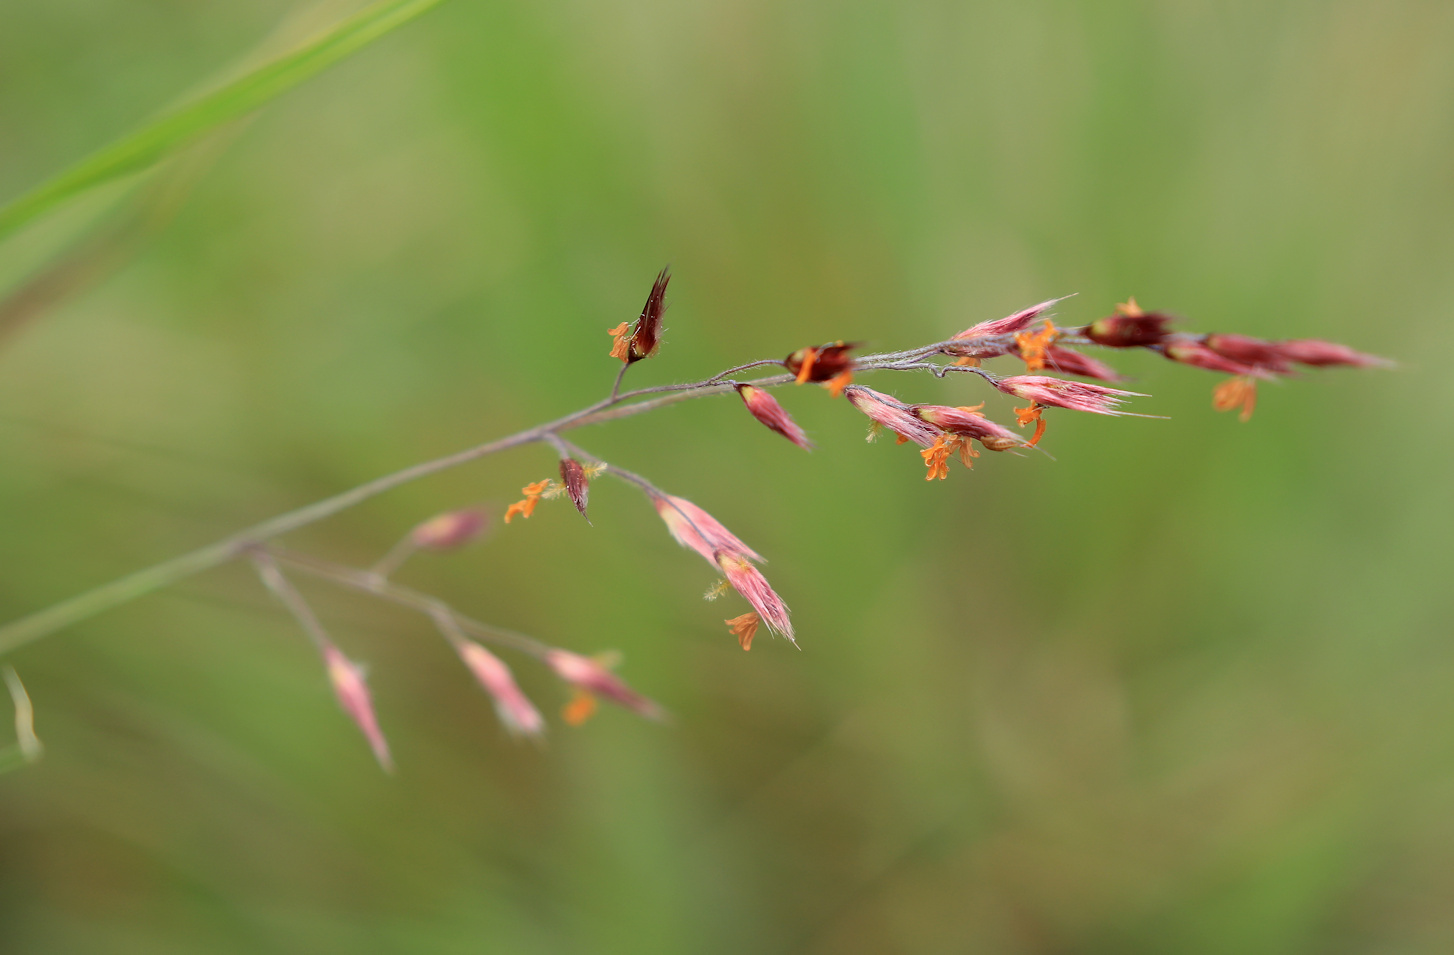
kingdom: Plantae
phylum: Tracheophyta
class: Liliopsida
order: Poales
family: Poaceae
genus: Melinis
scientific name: Melinis nerviglumis
